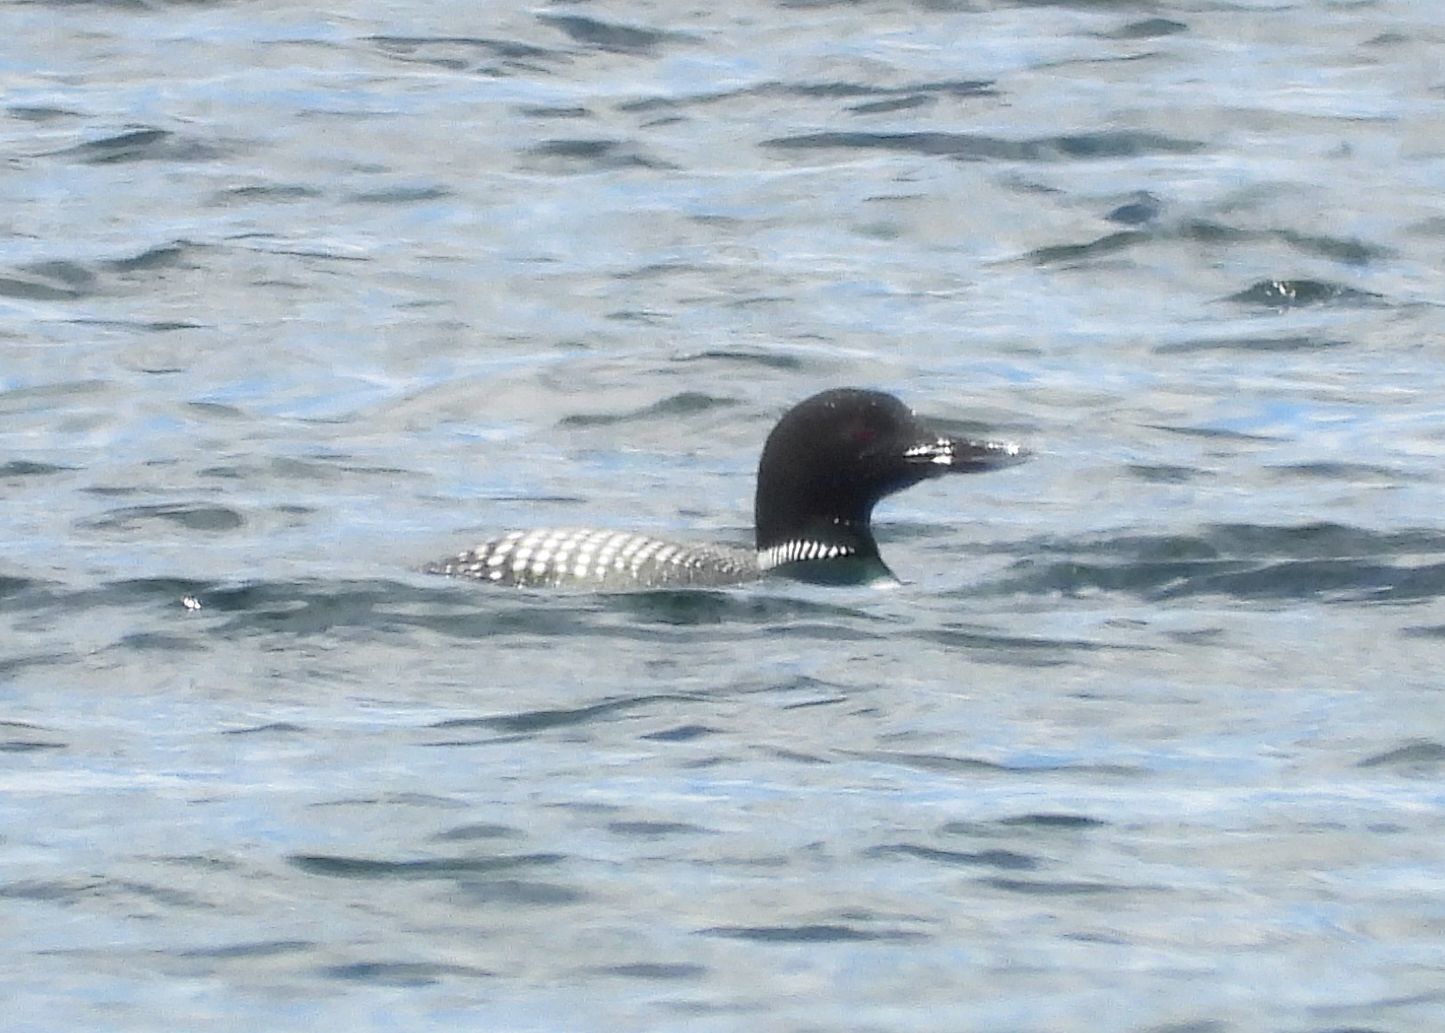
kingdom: Animalia
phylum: Chordata
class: Aves
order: Gaviiformes
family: Gaviidae
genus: Gavia
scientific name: Gavia immer
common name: Common loon
